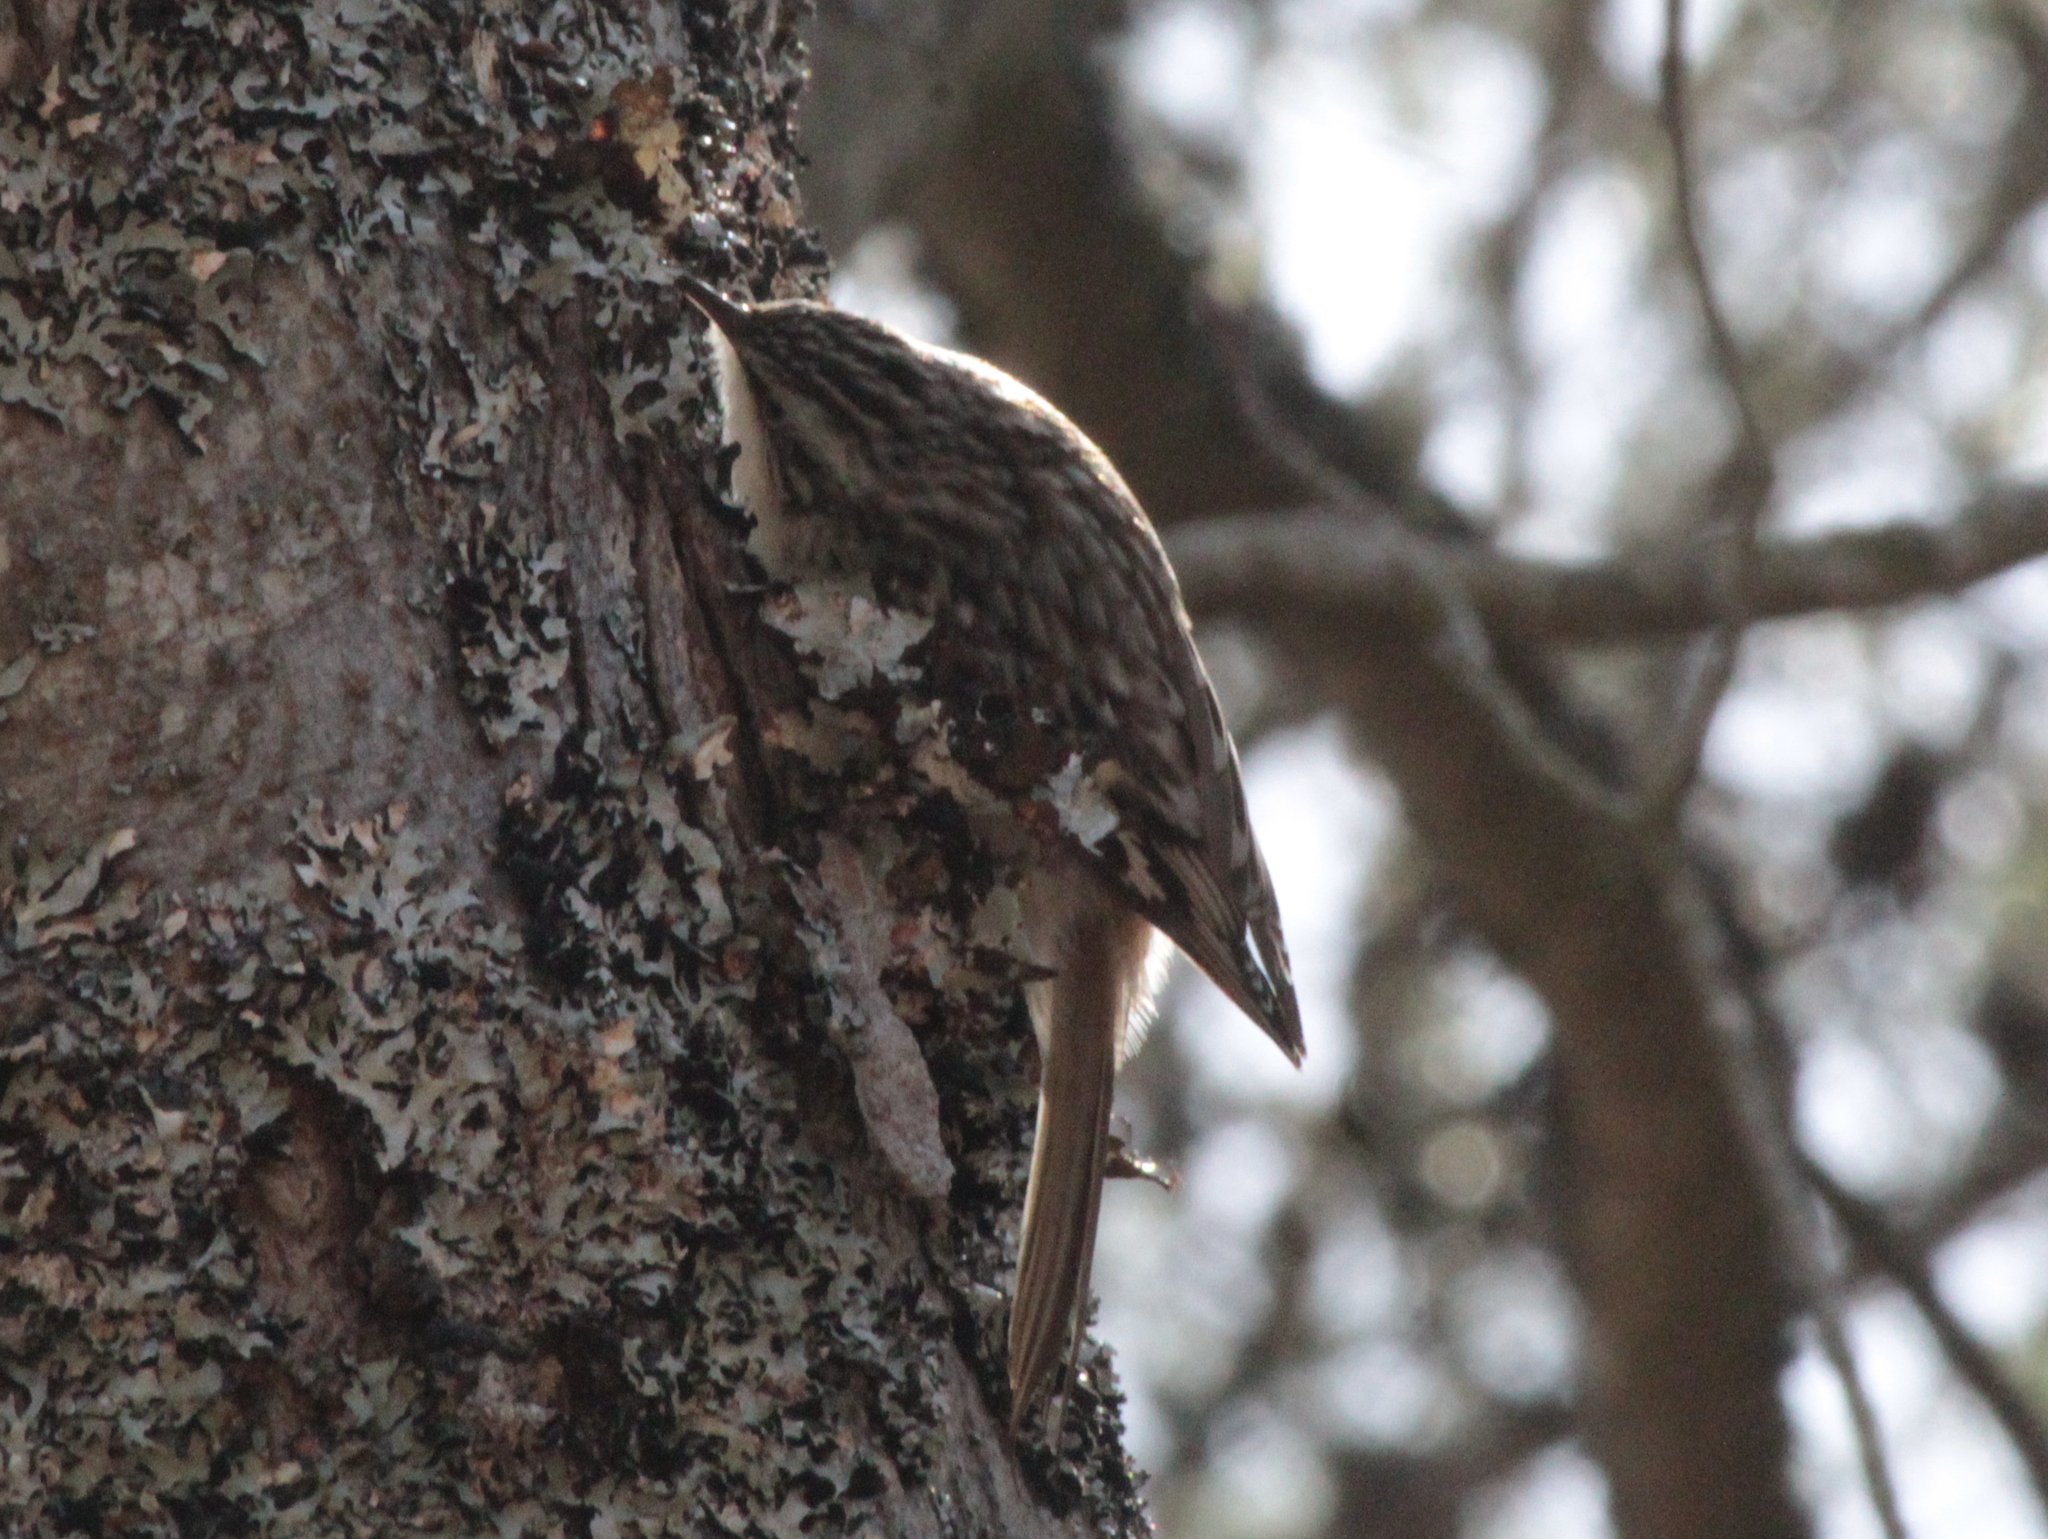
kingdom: Animalia
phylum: Chordata
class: Aves
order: Passeriformes
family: Certhiidae
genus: Certhia
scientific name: Certhia americana
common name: Brown creeper
